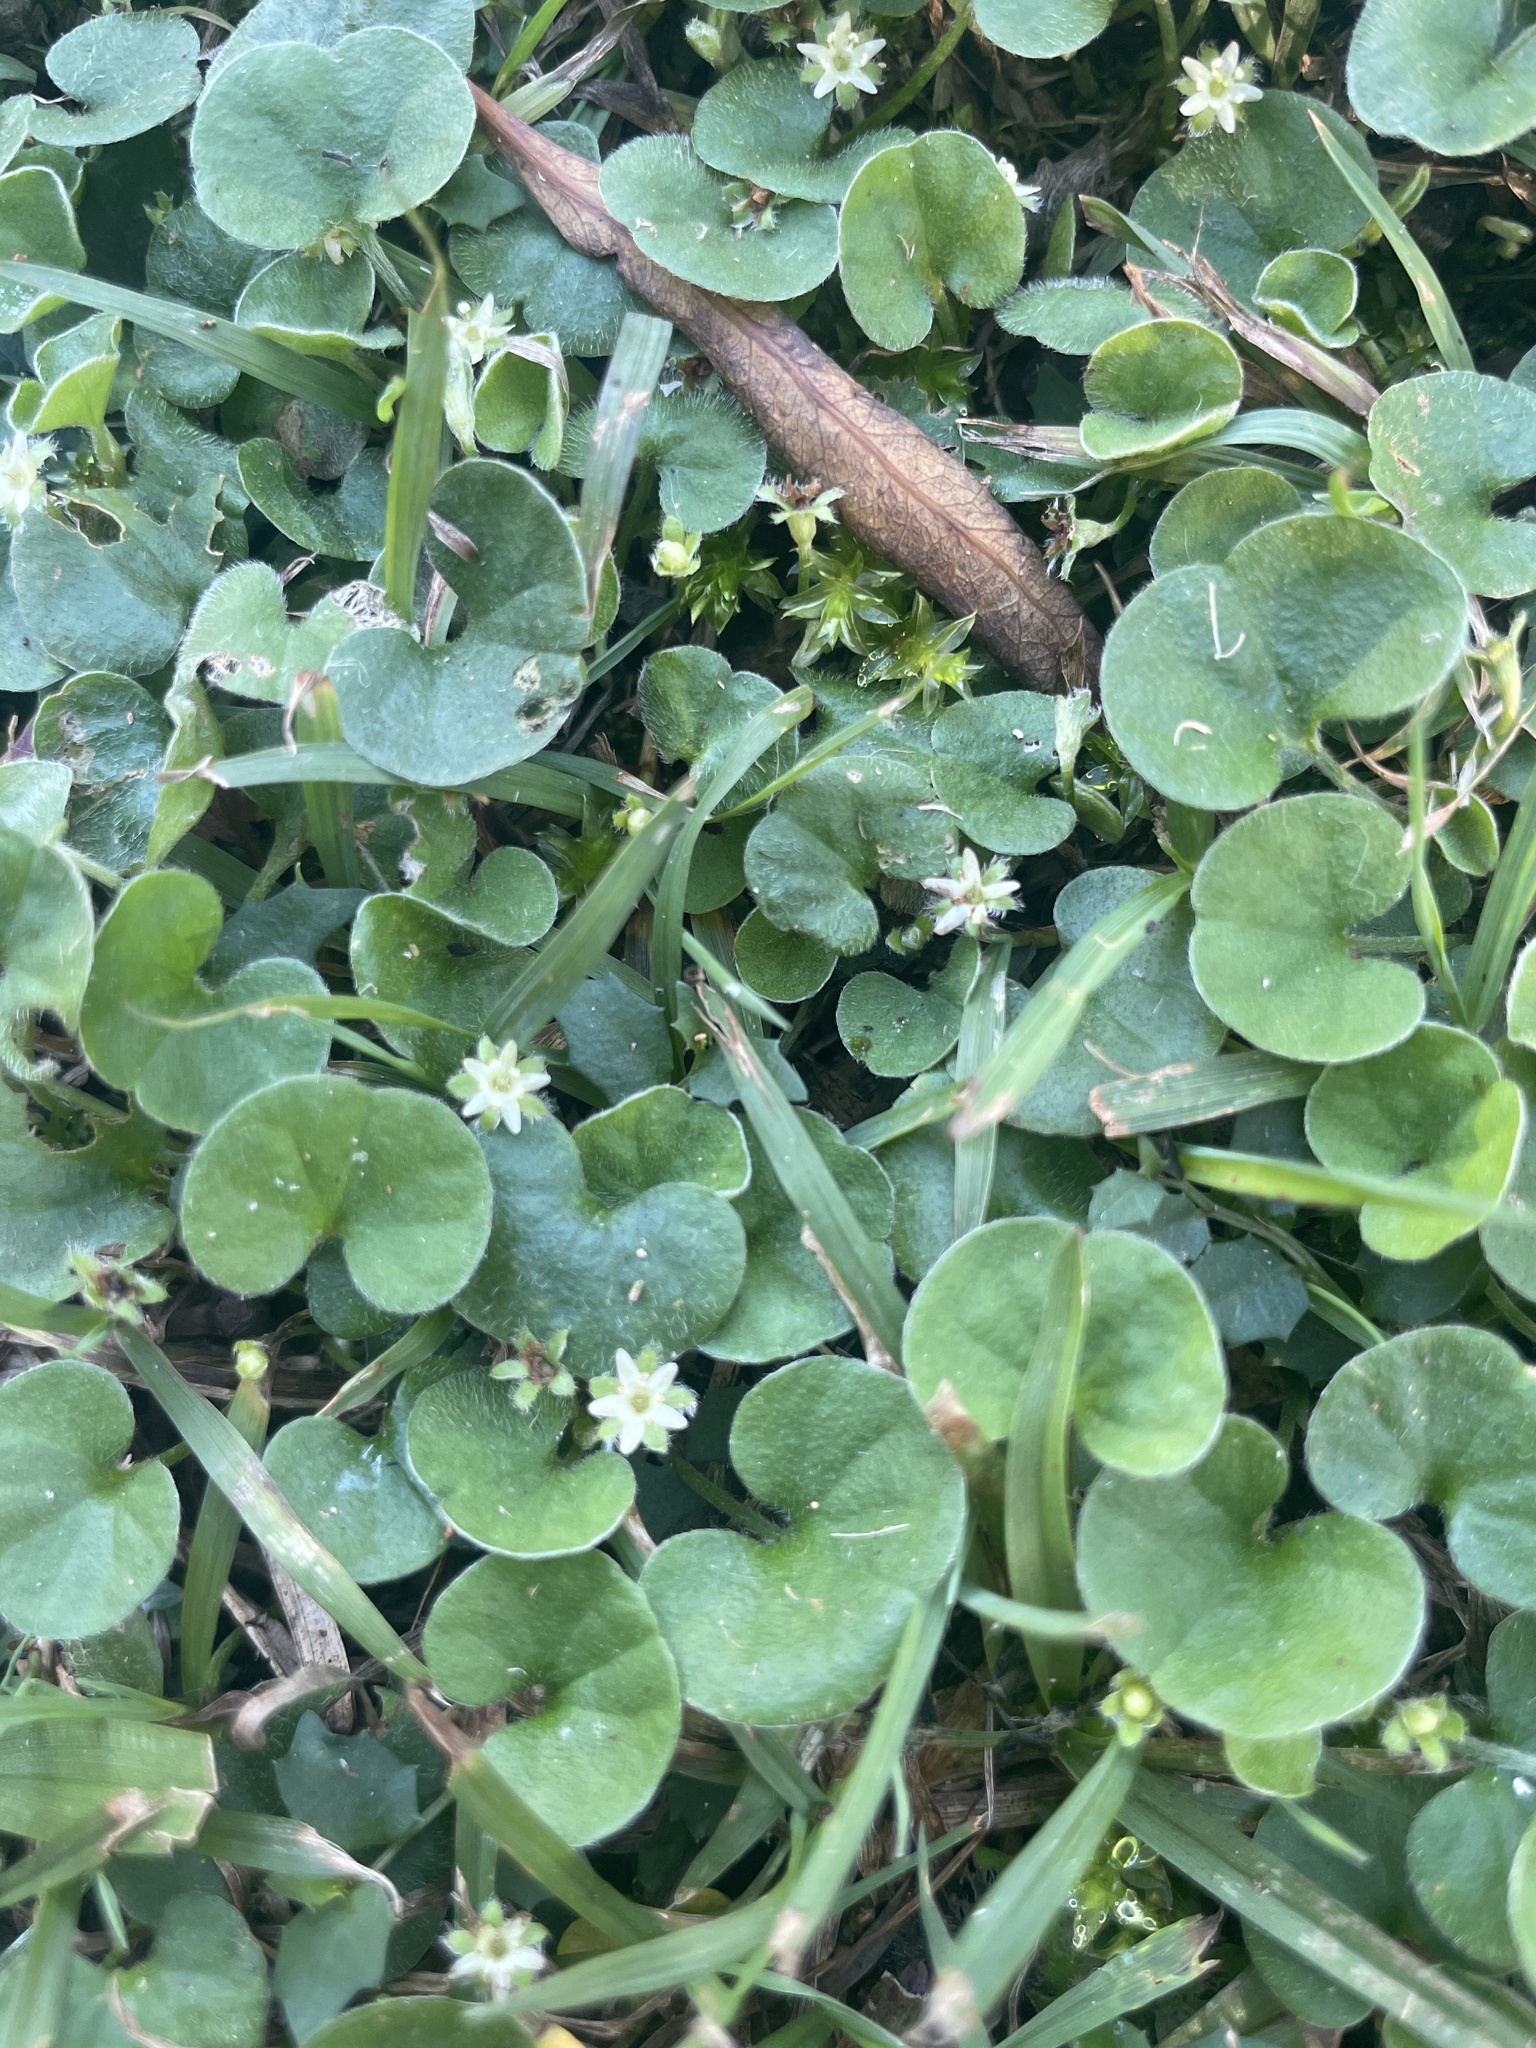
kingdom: Plantae
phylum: Tracheophyta
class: Magnoliopsida
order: Solanales
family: Convolvulaceae
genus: Dichondra
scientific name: Dichondra repens
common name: Kidneyweed
